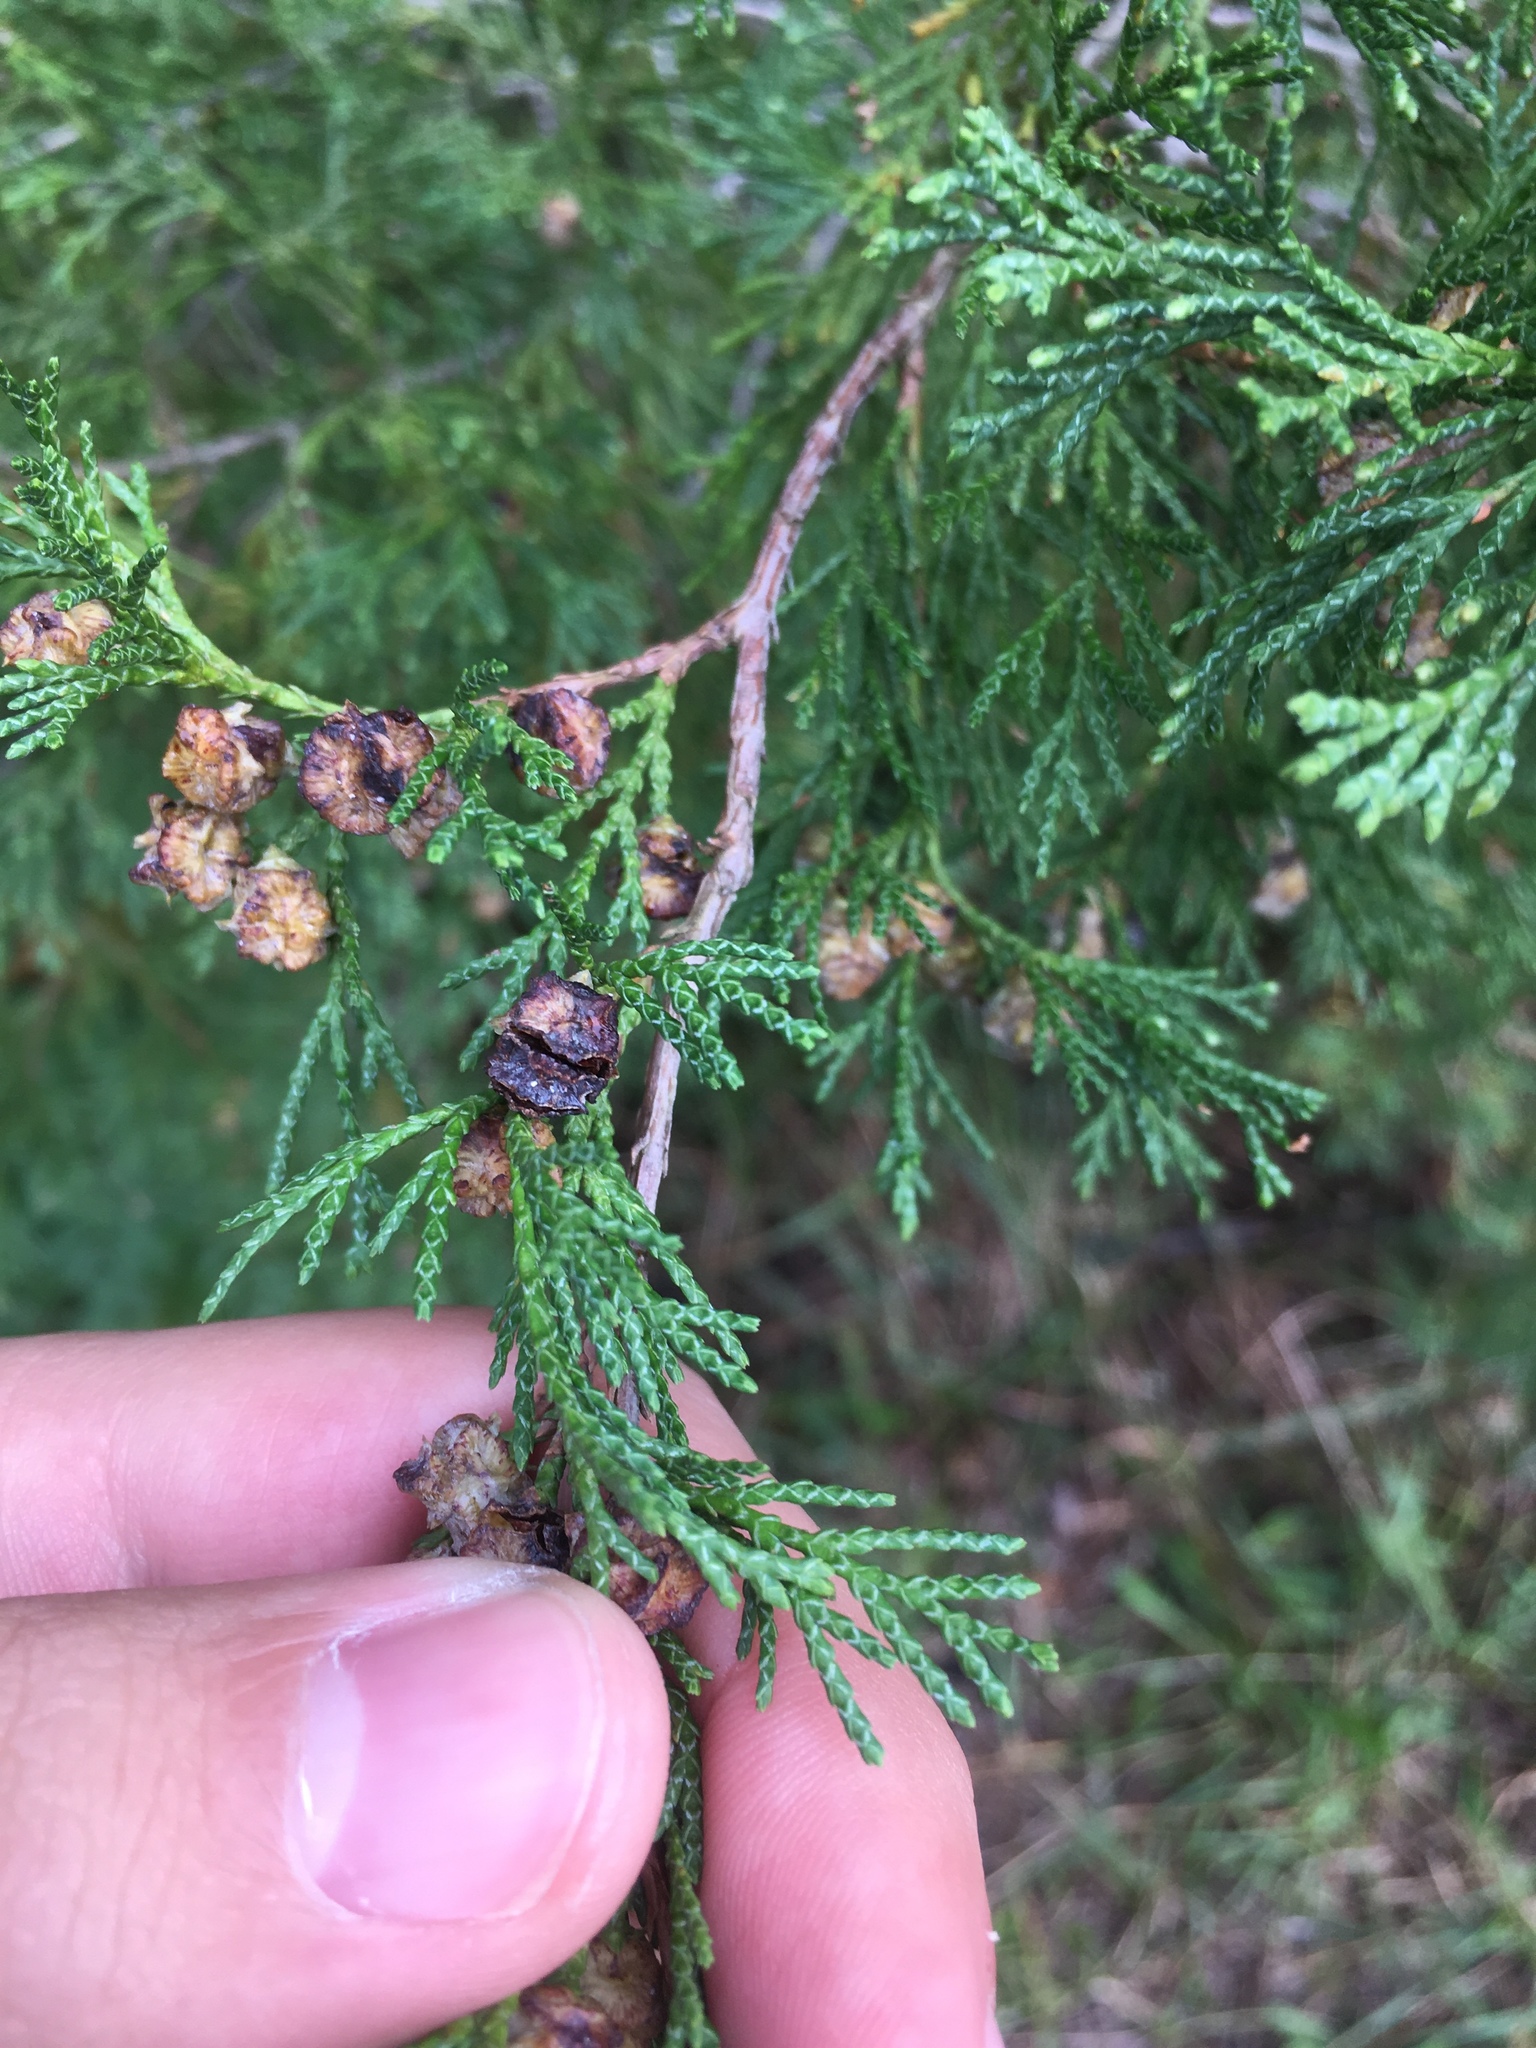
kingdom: Plantae
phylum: Tracheophyta
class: Pinopsida
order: Pinales
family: Cupressaceae
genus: Chamaecyparis
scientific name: Chamaecyparis thyoides
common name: Atlantic white cedar
